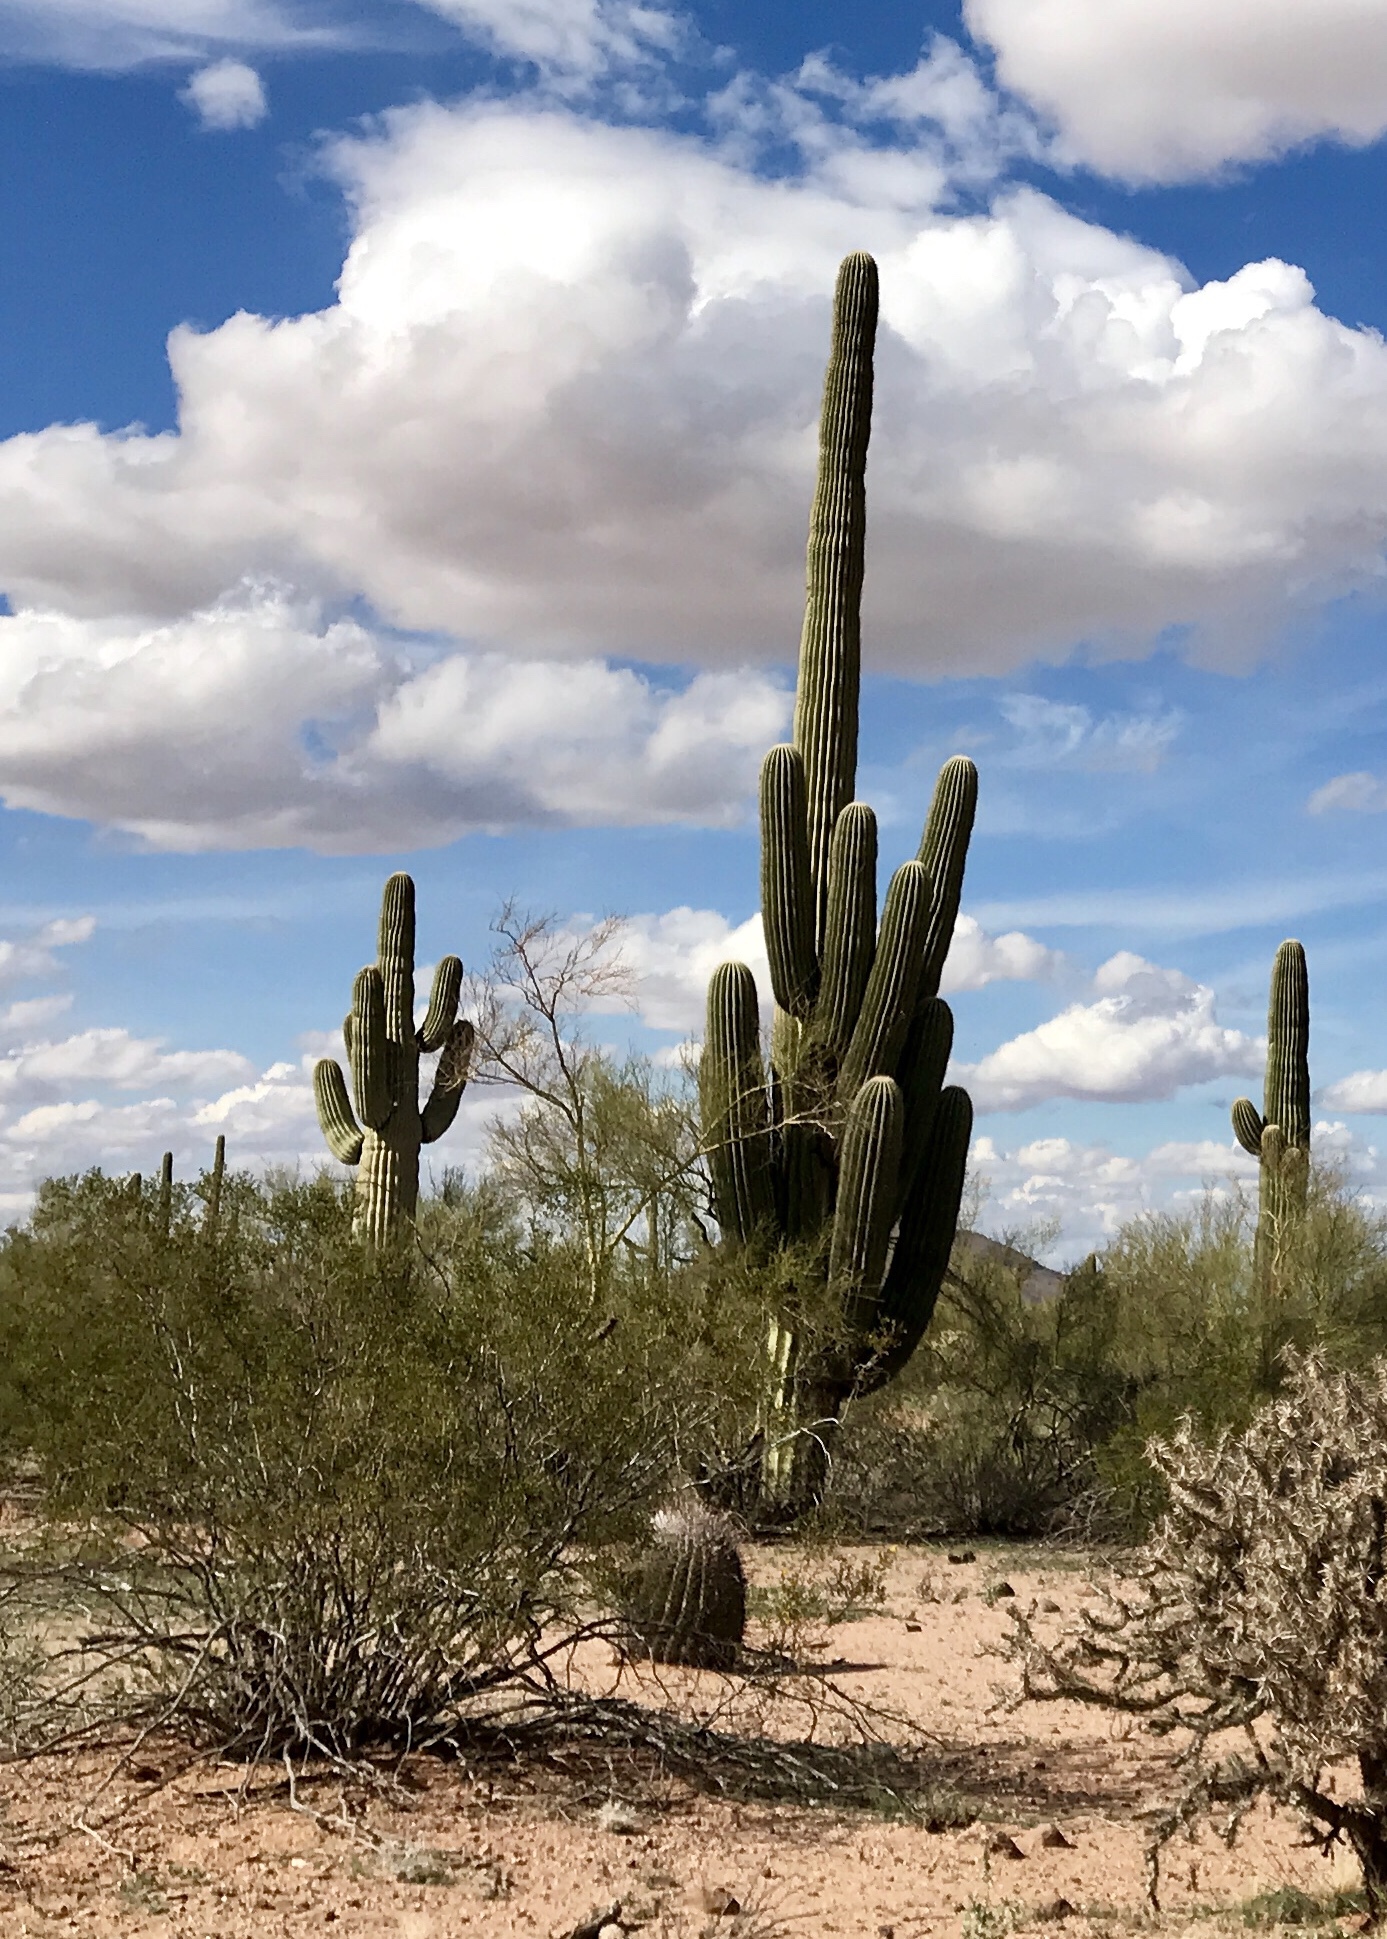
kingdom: Plantae
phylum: Tracheophyta
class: Magnoliopsida
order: Caryophyllales
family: Cactaceae
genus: Carnegiea
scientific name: Carnegiea gigantea
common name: Saguaro
